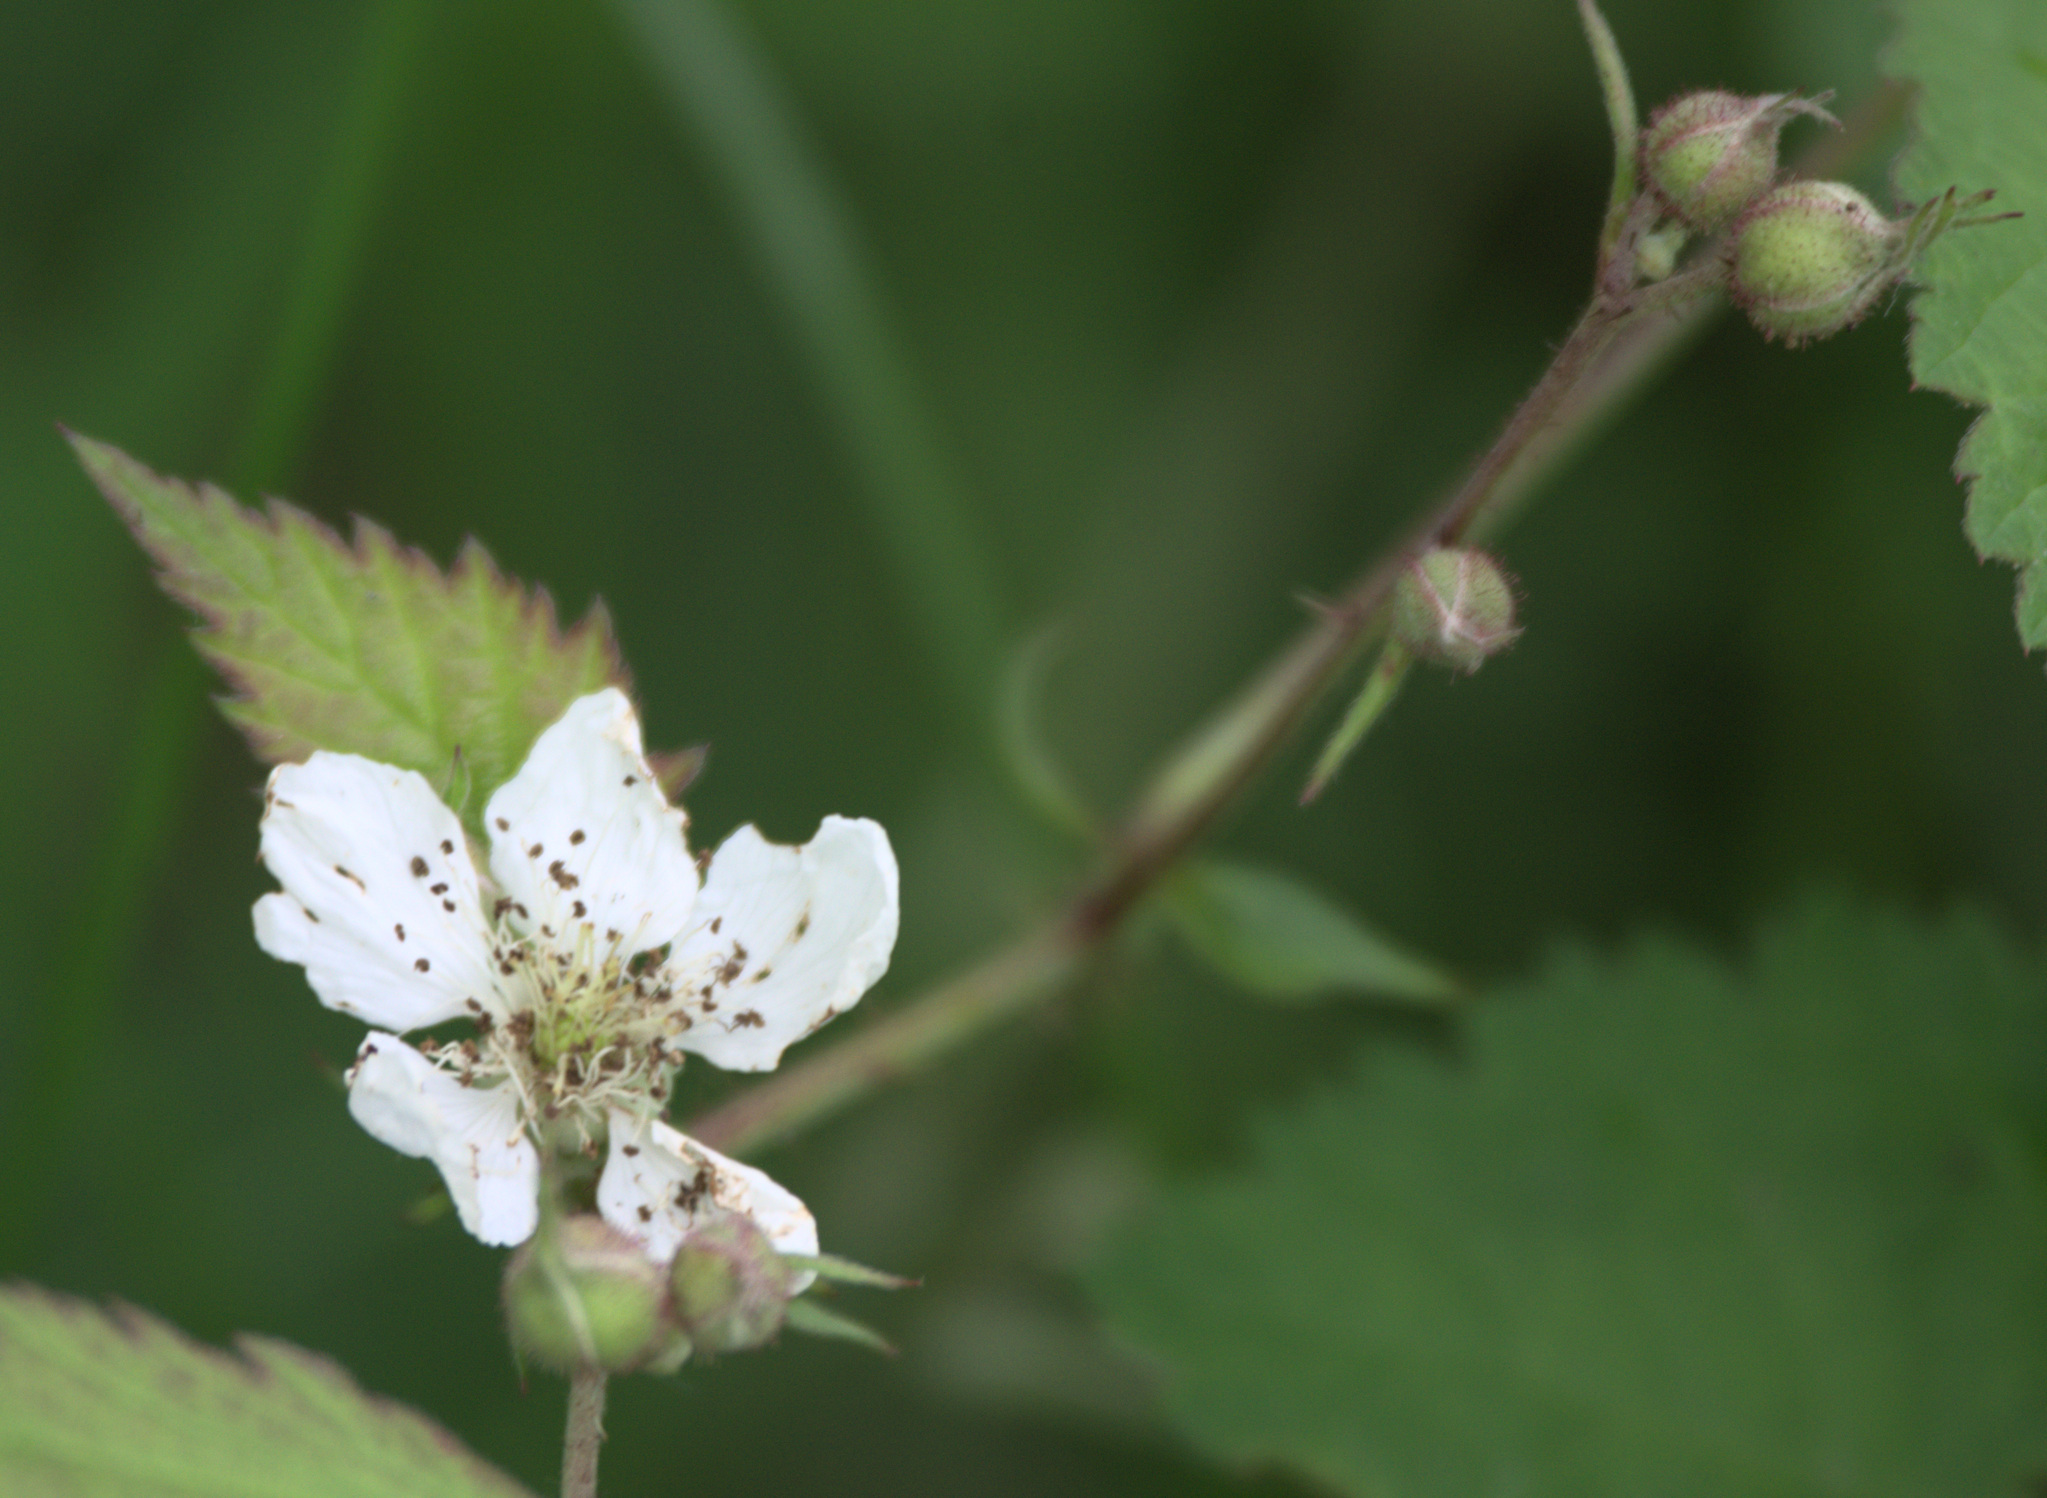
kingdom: Plantae
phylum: Tracheophyta
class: Magnoliopsida
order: Rosales
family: Rosaceae
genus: Rubus
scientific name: Rubus caesius
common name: Dewberry
